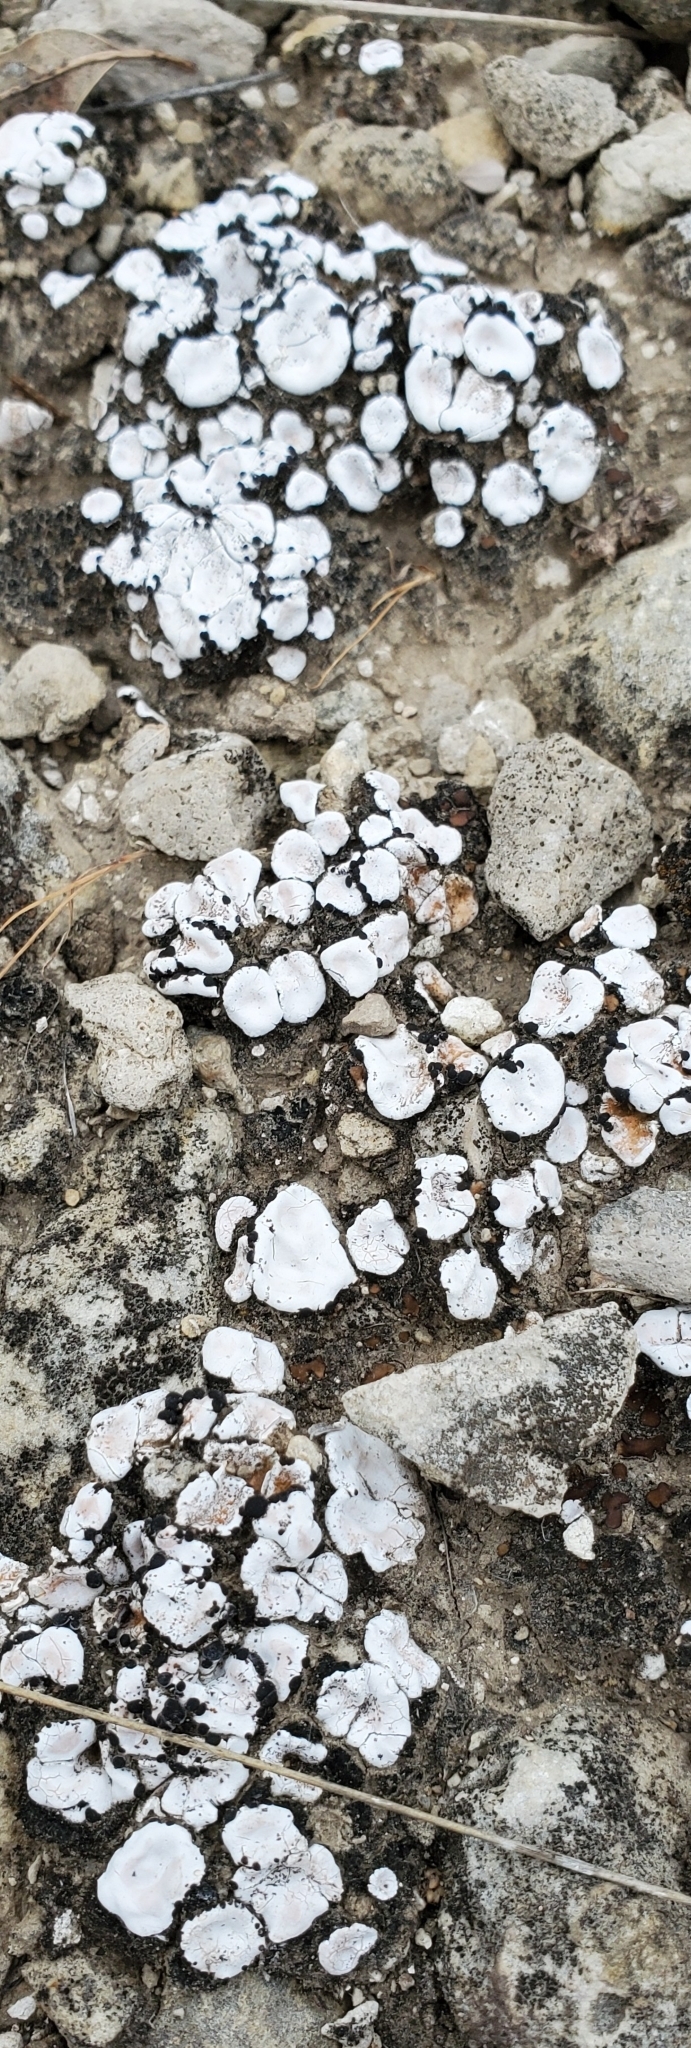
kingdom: Fungi
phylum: Ascomycota
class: Lecanoromycetes
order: Lecanorales
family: Psoraceae
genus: Psora
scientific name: Psora crenata
